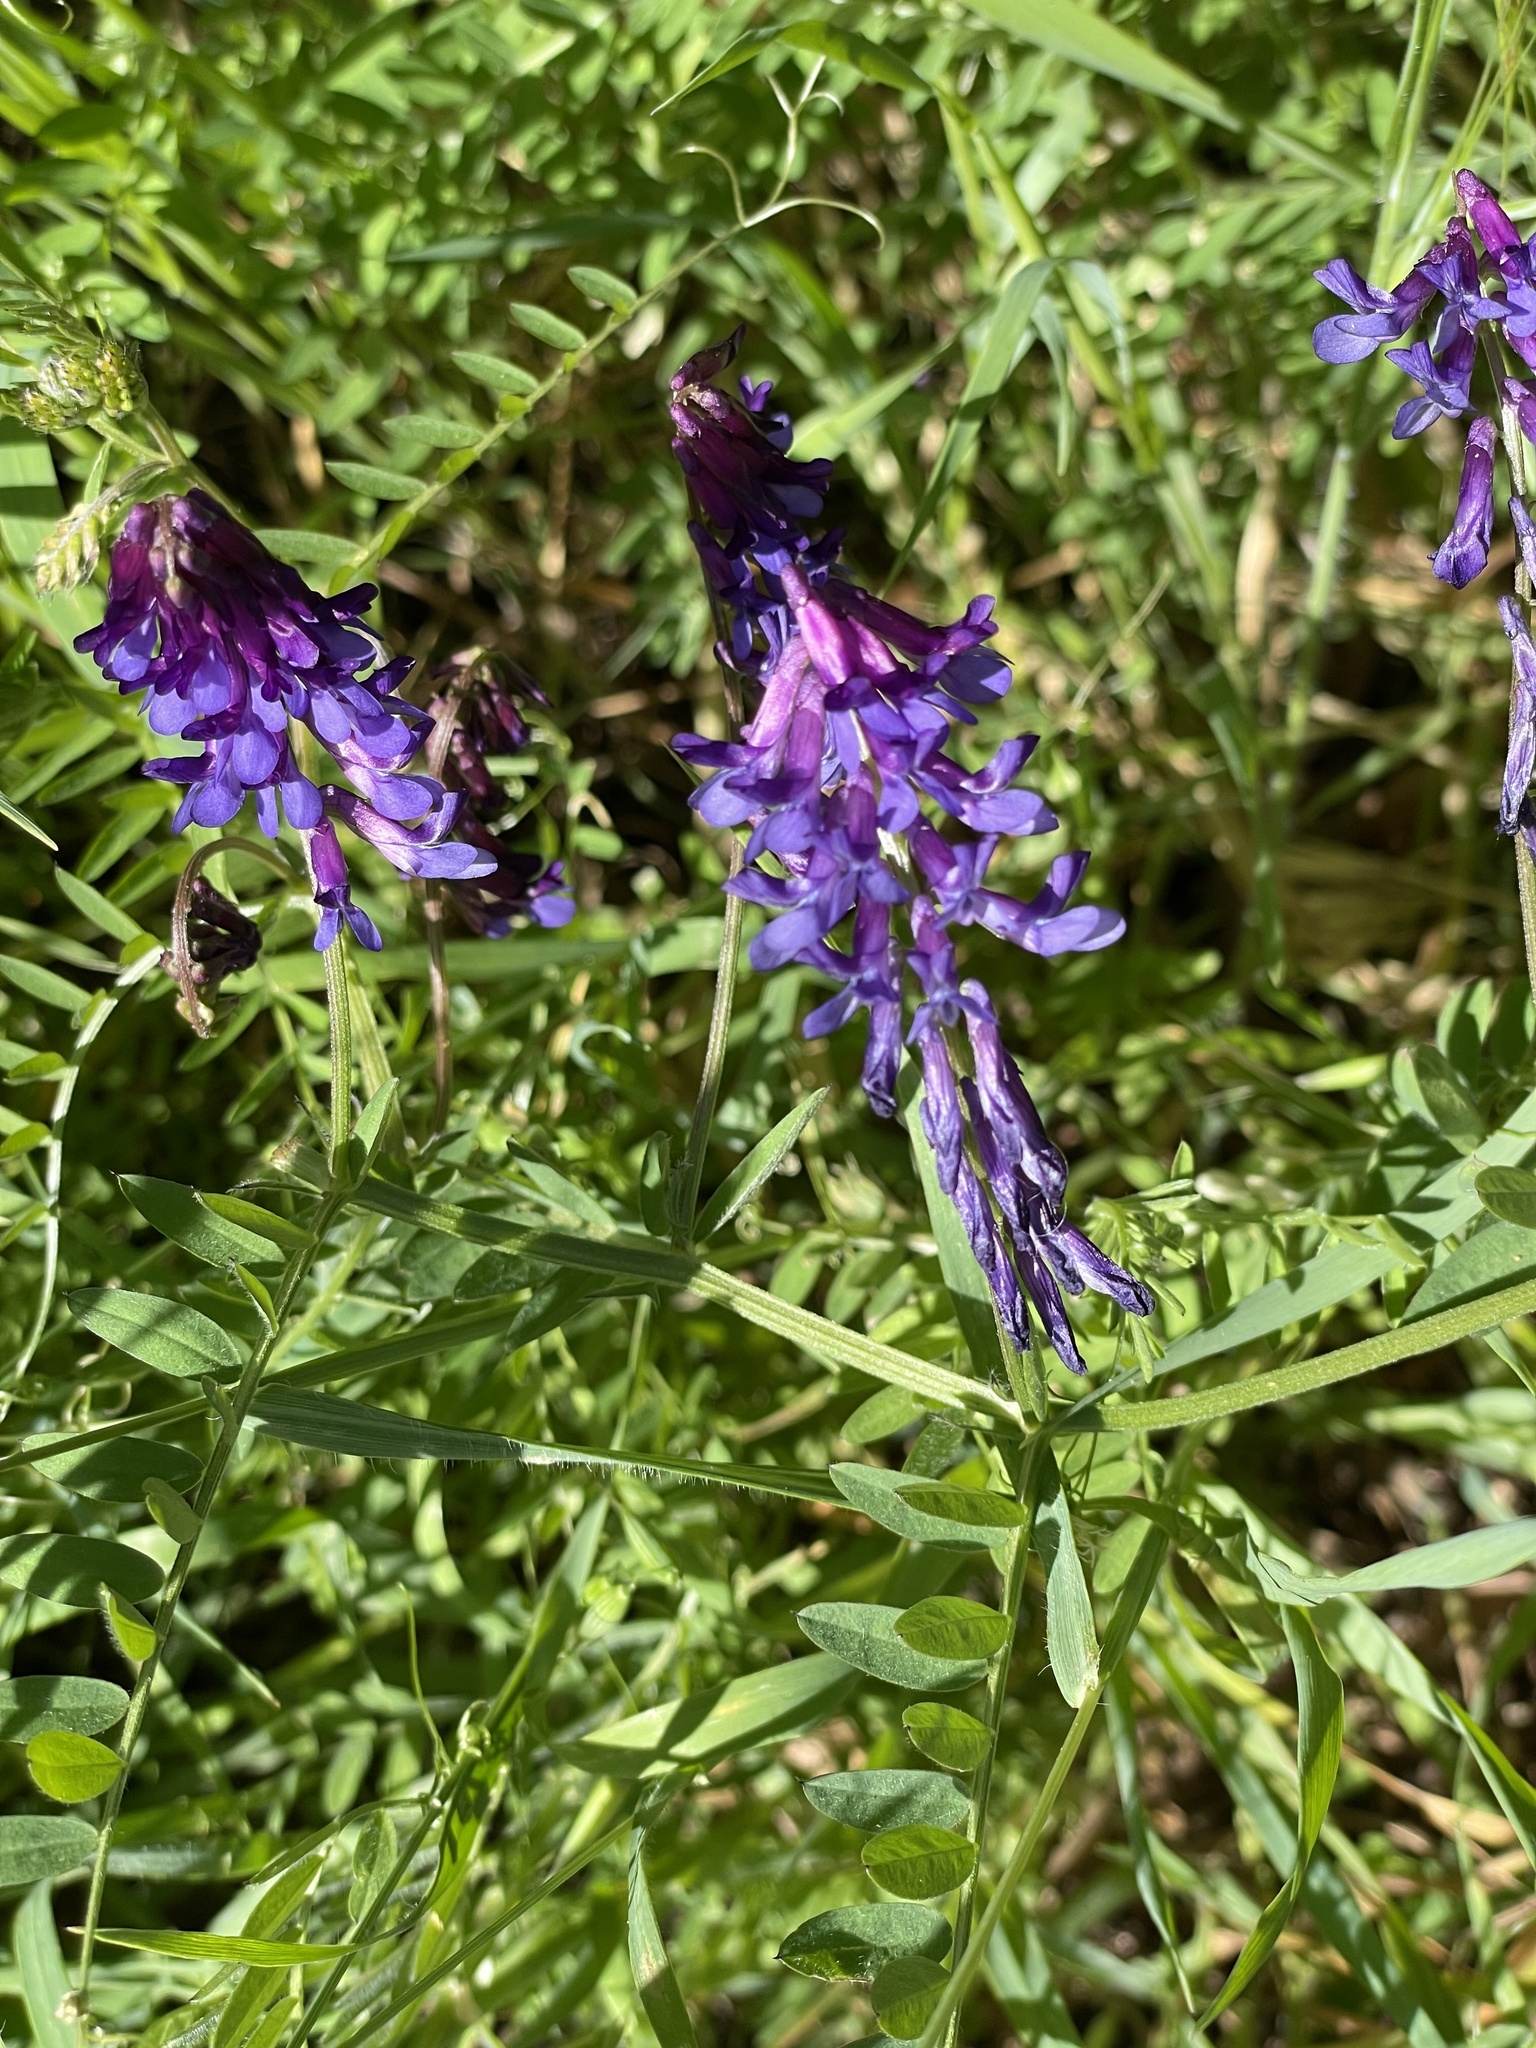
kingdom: Plantae
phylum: Tracheophyta
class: Magnoliopsida
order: Fabales
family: Fabaceae
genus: Vicia
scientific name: Vicia villosa
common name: Fodder vetch
